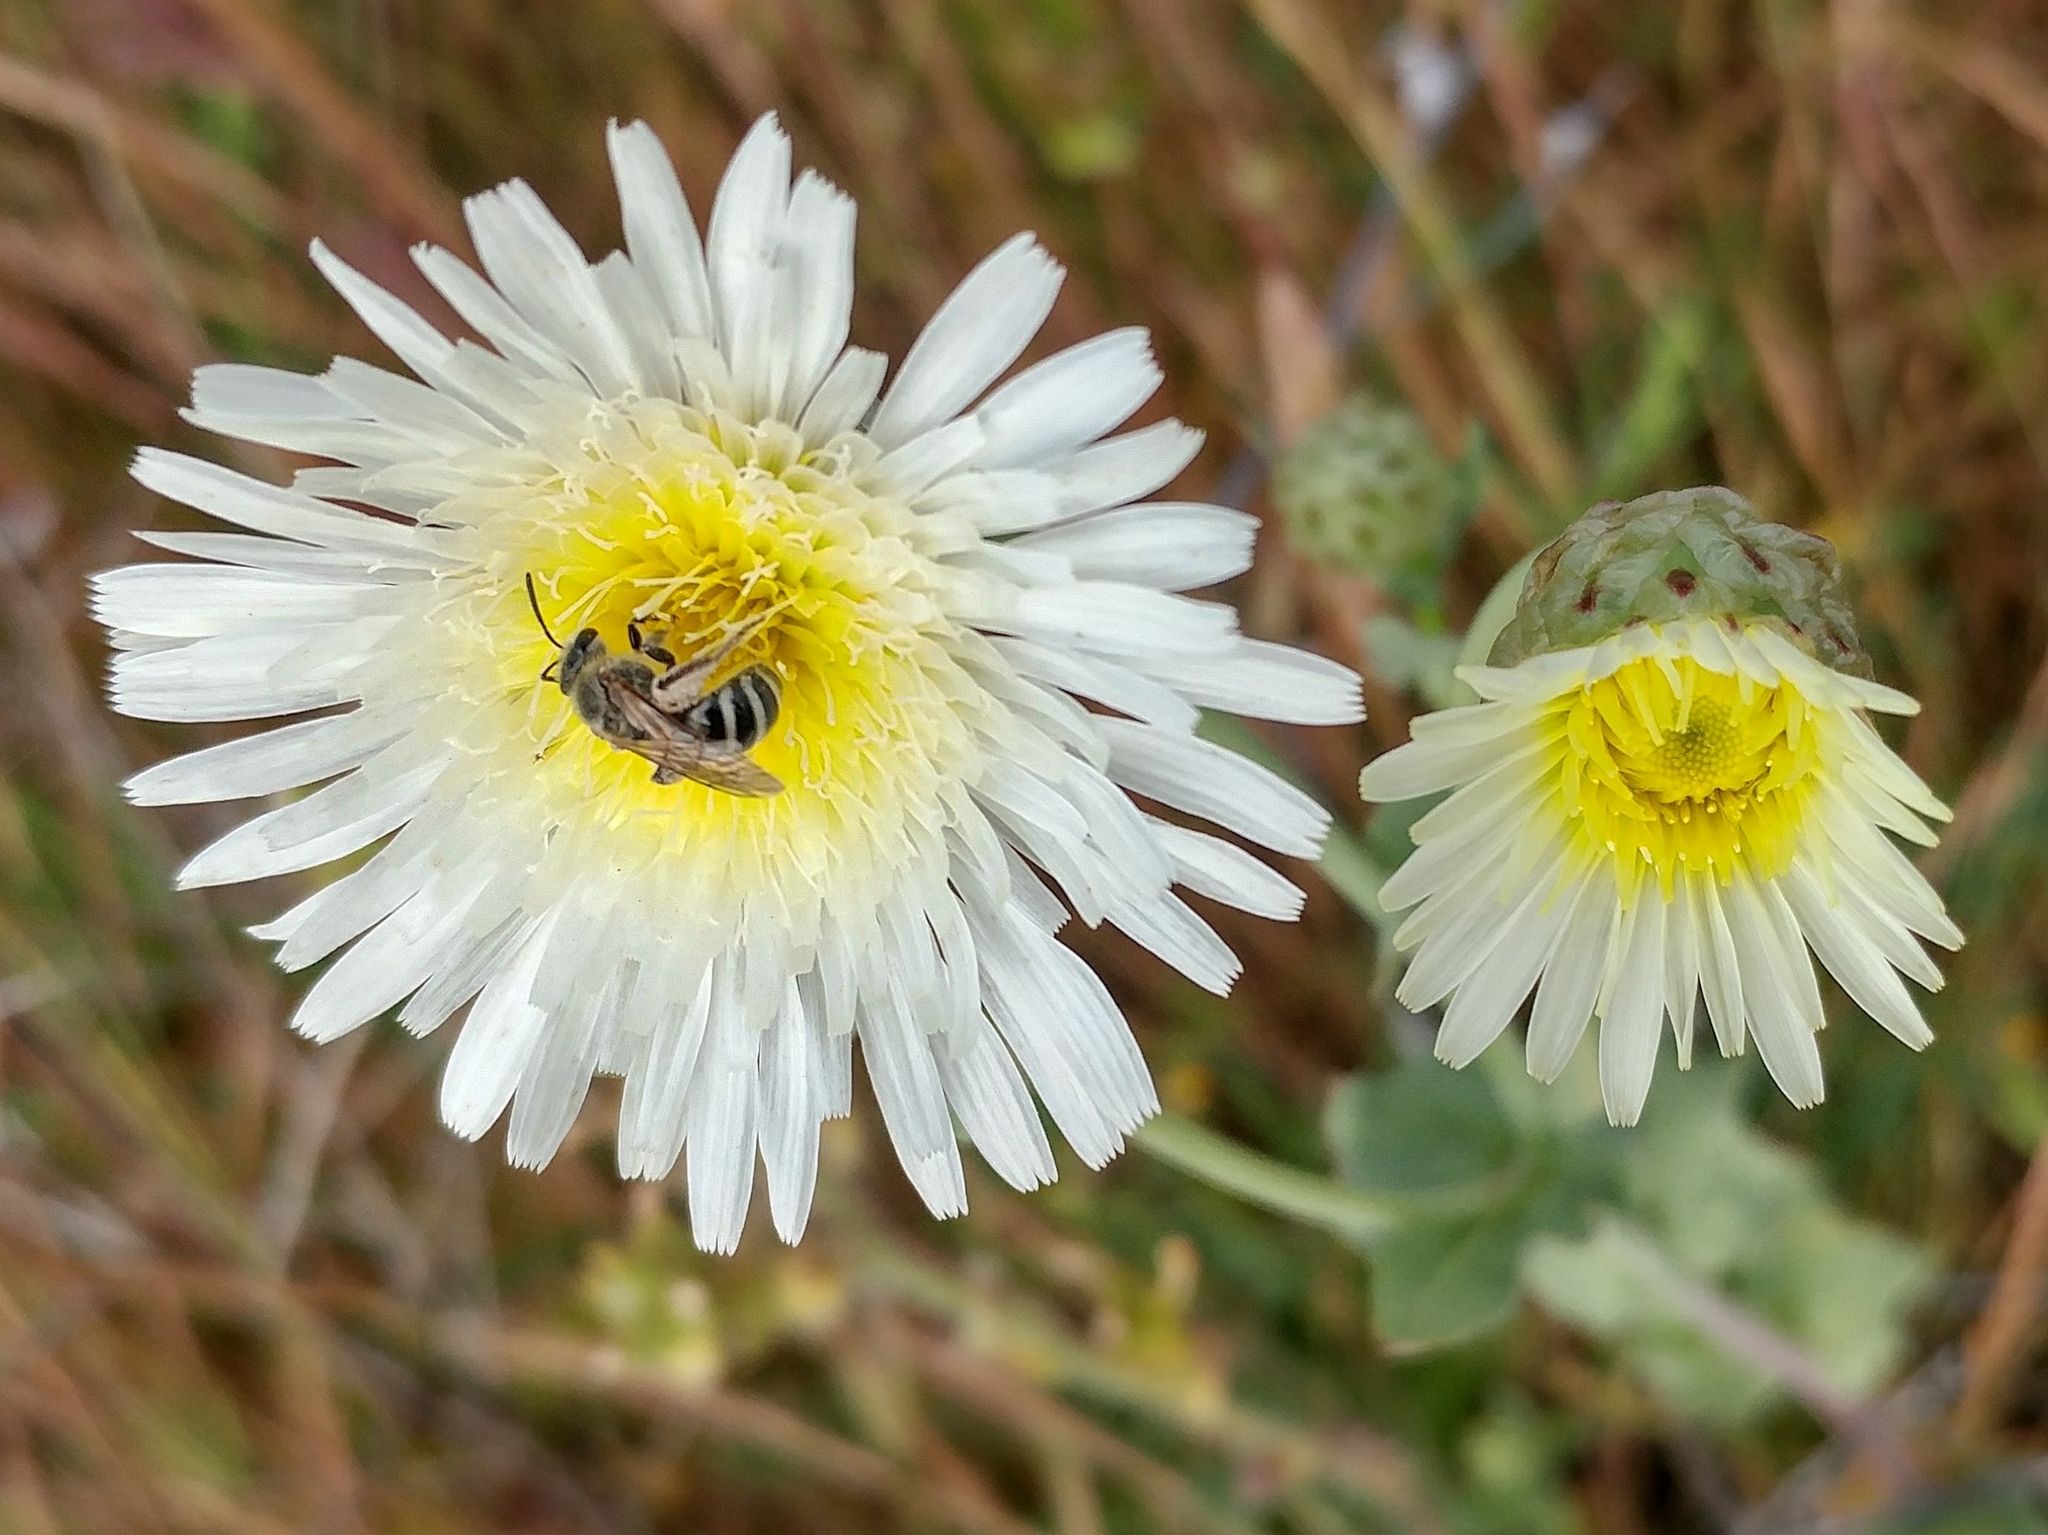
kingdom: Animalia
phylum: Arthropoda
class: Insecta
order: Hymenoptera
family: Halictidae
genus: Lasioglossum
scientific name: Lasioglossum sisymbrii
